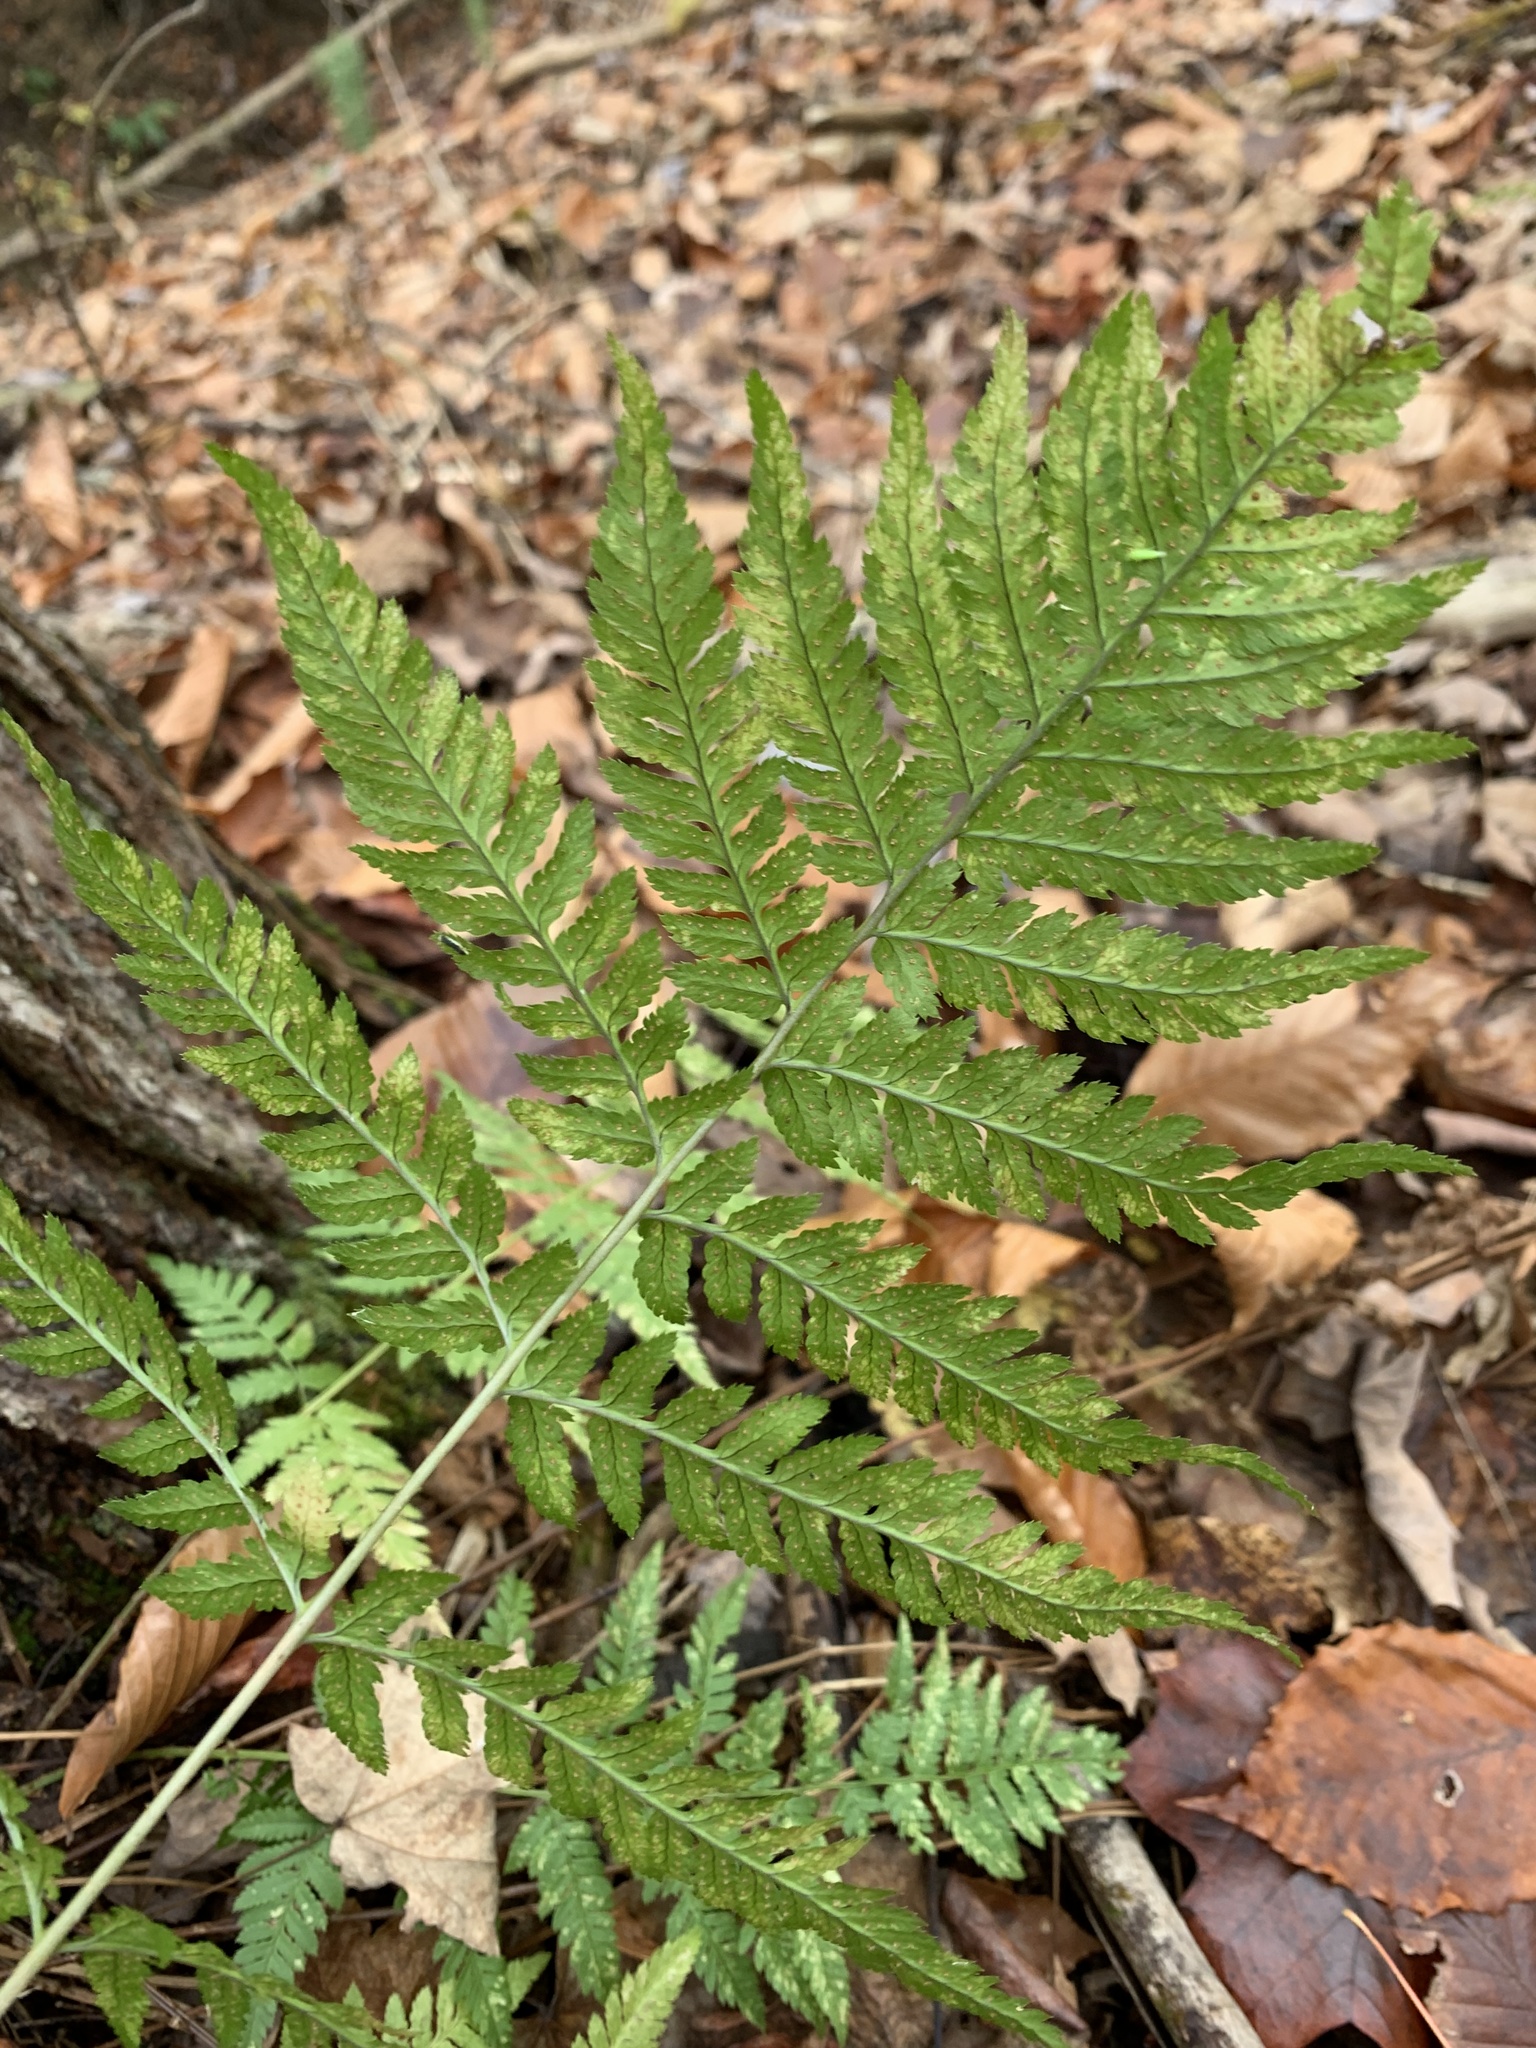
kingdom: Plantae
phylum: Tracheophyta
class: Polypodiopsida
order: Polypodiales
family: Dryopteridaceae
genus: Dryopteris
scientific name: Dryopteris carthusiana
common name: Narrow buckler-fern
